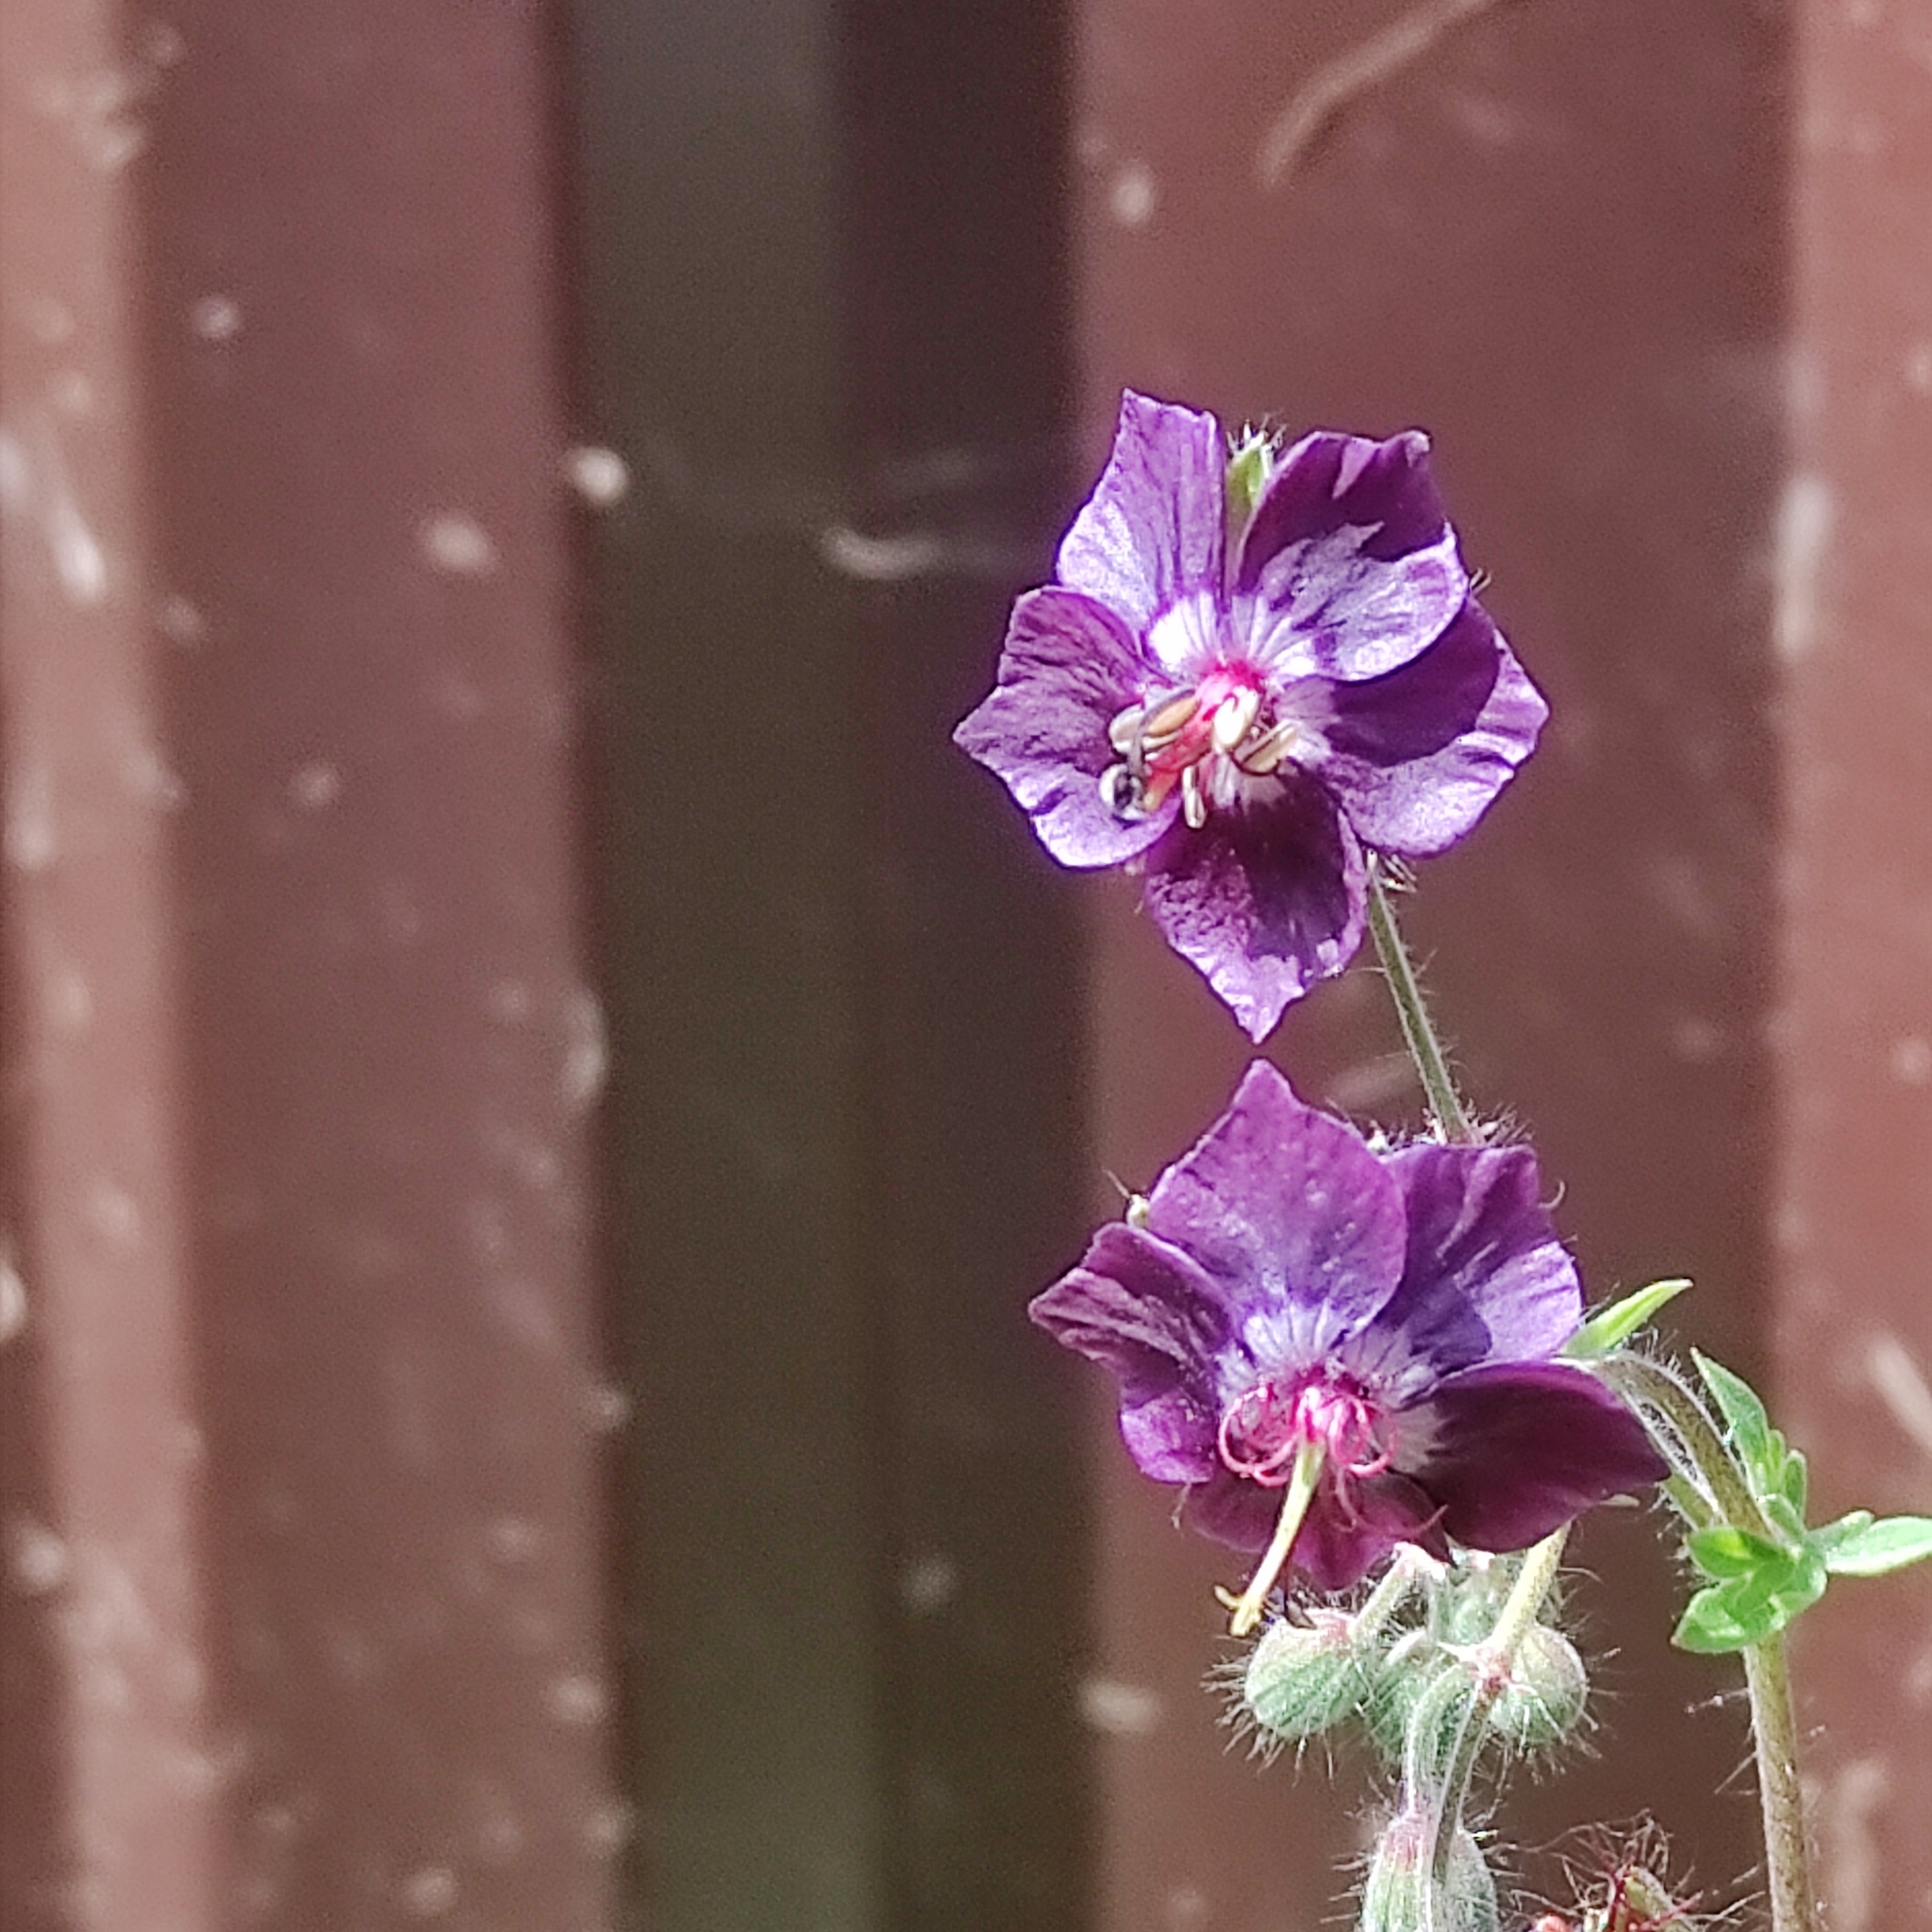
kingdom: Plantae
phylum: Tracheophyta
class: Magnoliopsida
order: Geraniales
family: Geraniaceae
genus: Geranium
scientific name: Geranium phaeum
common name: Dusky crane's-bill
